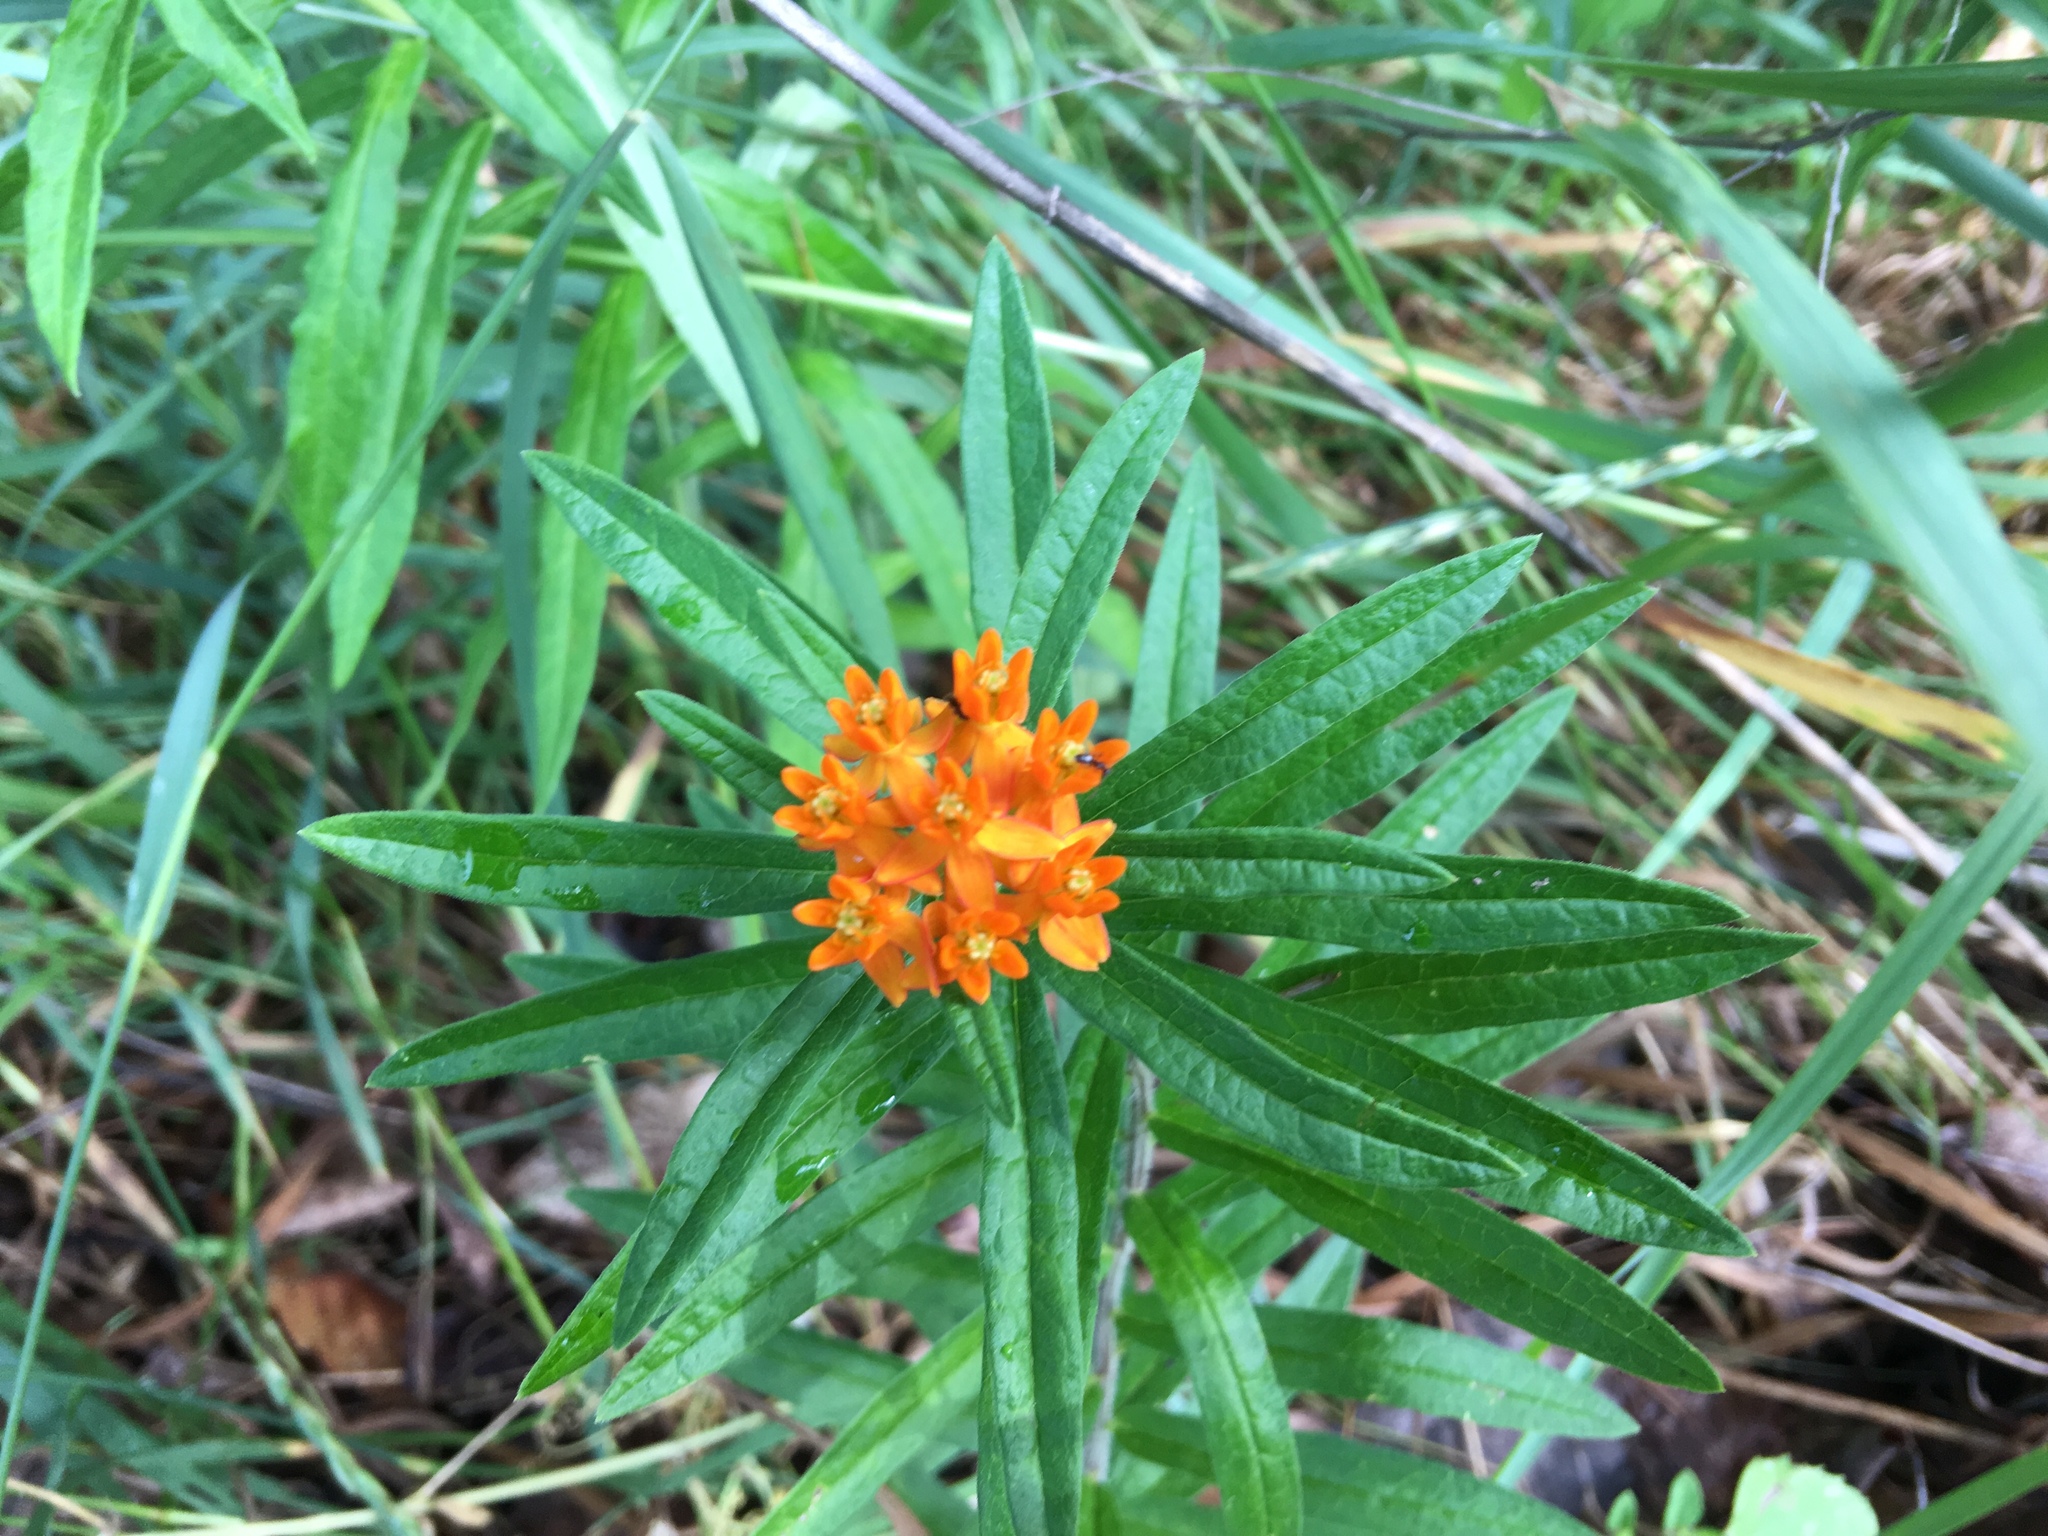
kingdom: Plantae
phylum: Tracheophyta
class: Magnoliopsida
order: Gentianales
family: Apocynaceae
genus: Asclepias
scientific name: Asclepias tuberosa
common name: Butterfly milkweed
